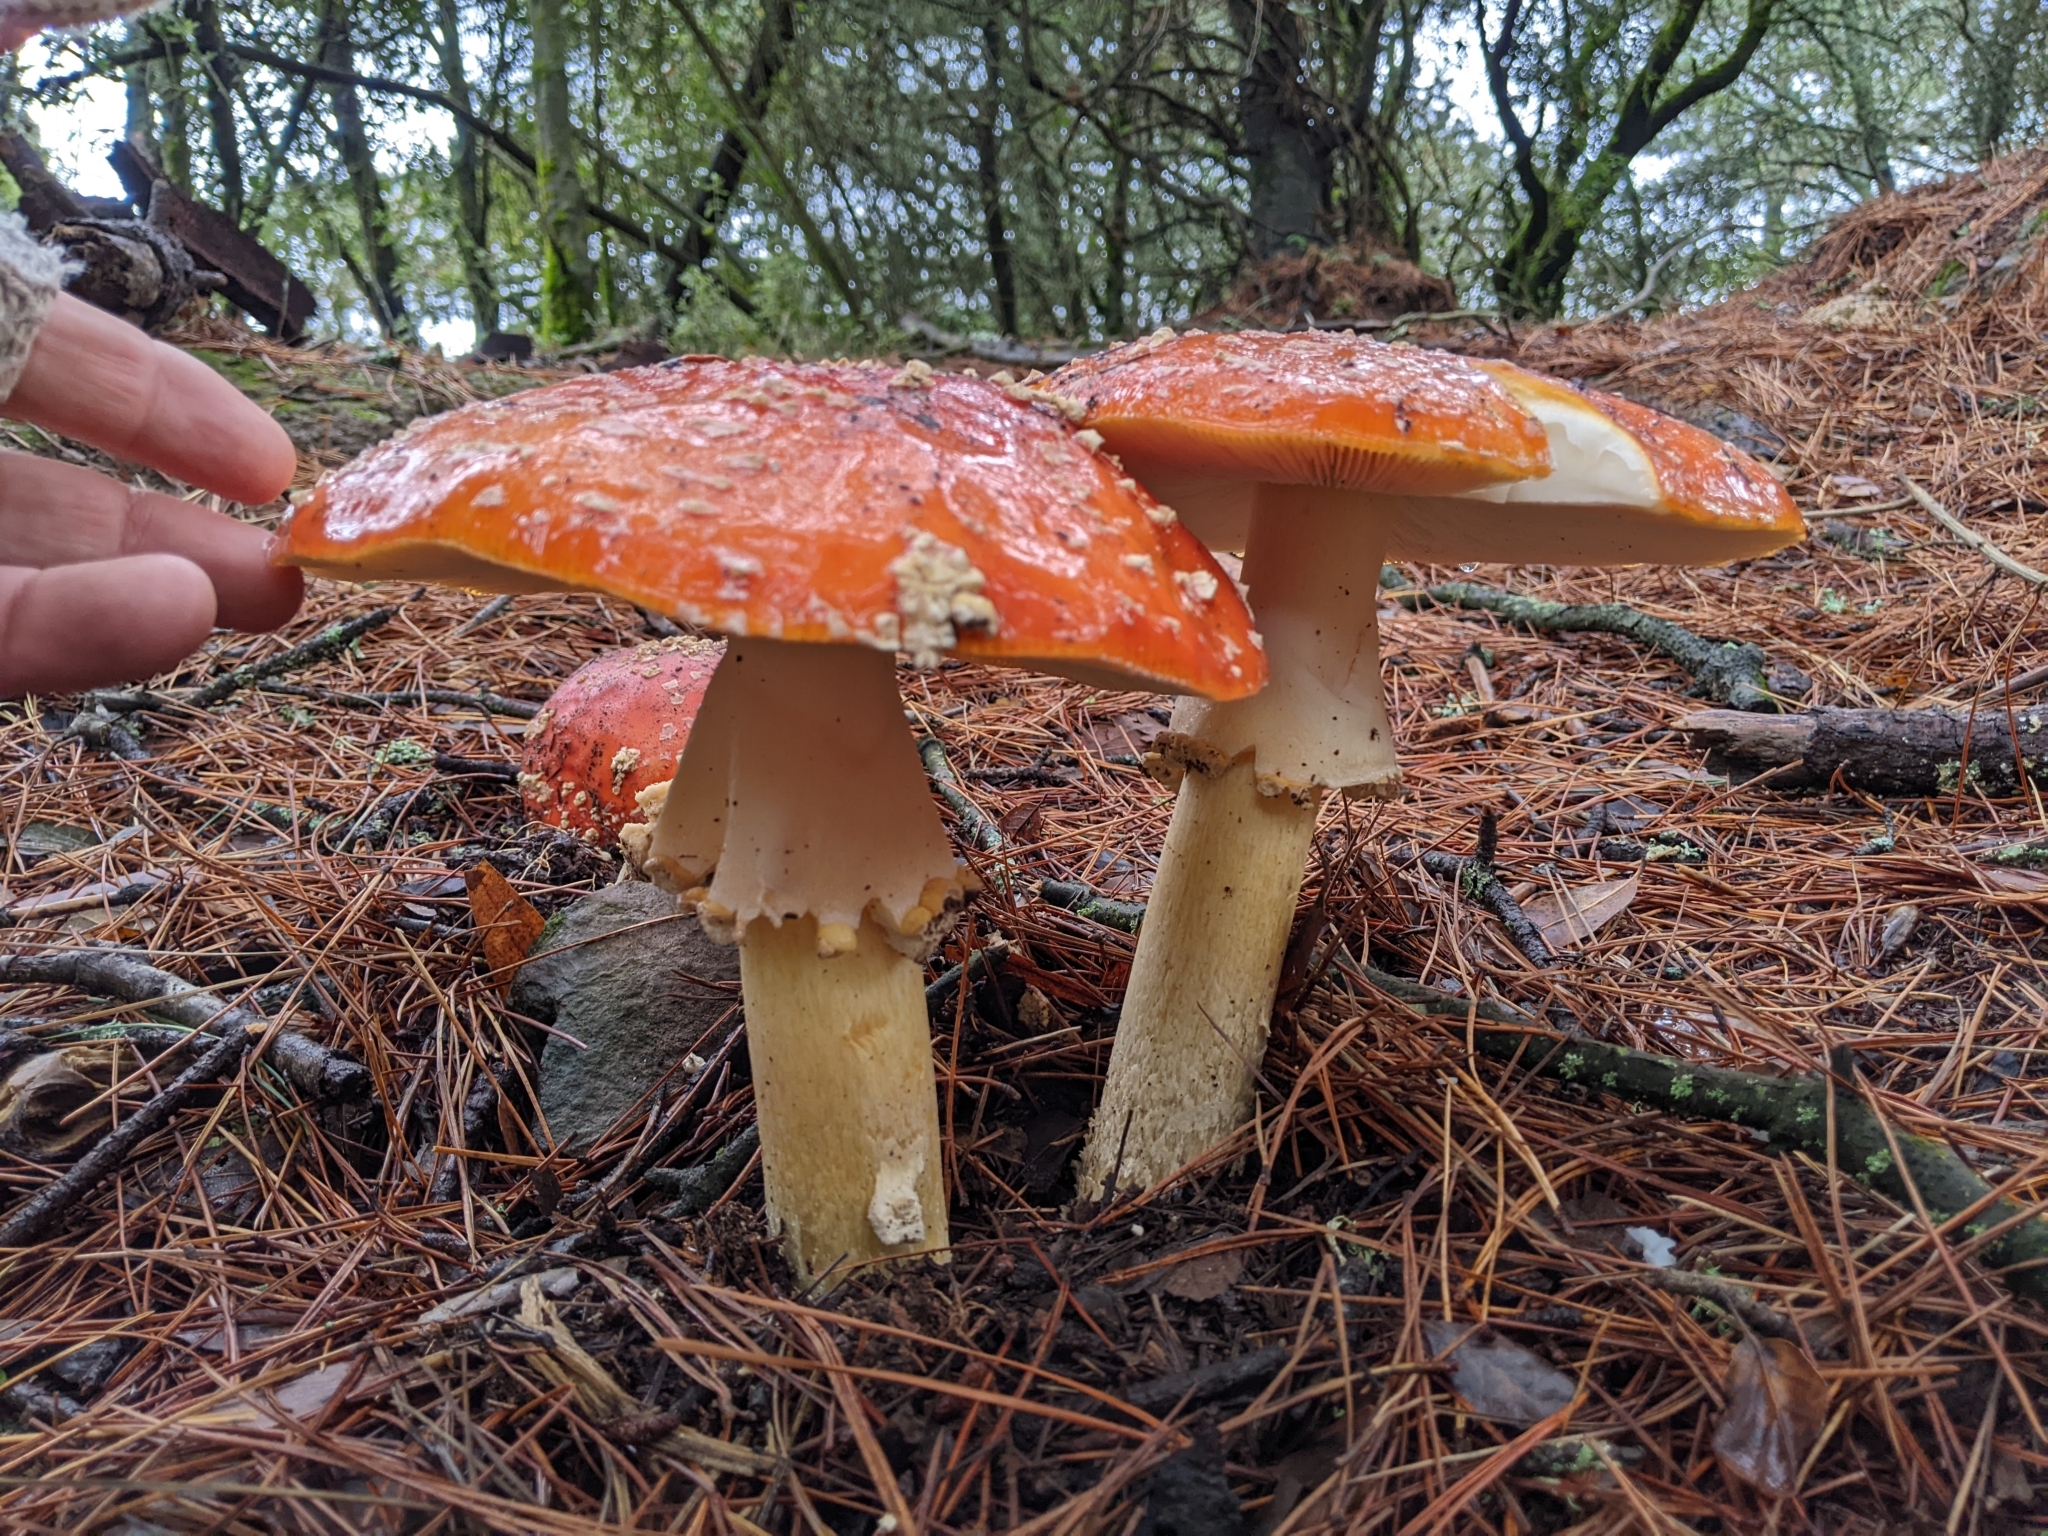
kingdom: Fungi
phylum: Basidiomycota
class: Agaricomycetes
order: Agaricales
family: Amanitaceae
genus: Amanita
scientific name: Amanita muscaria
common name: Fly agaric
